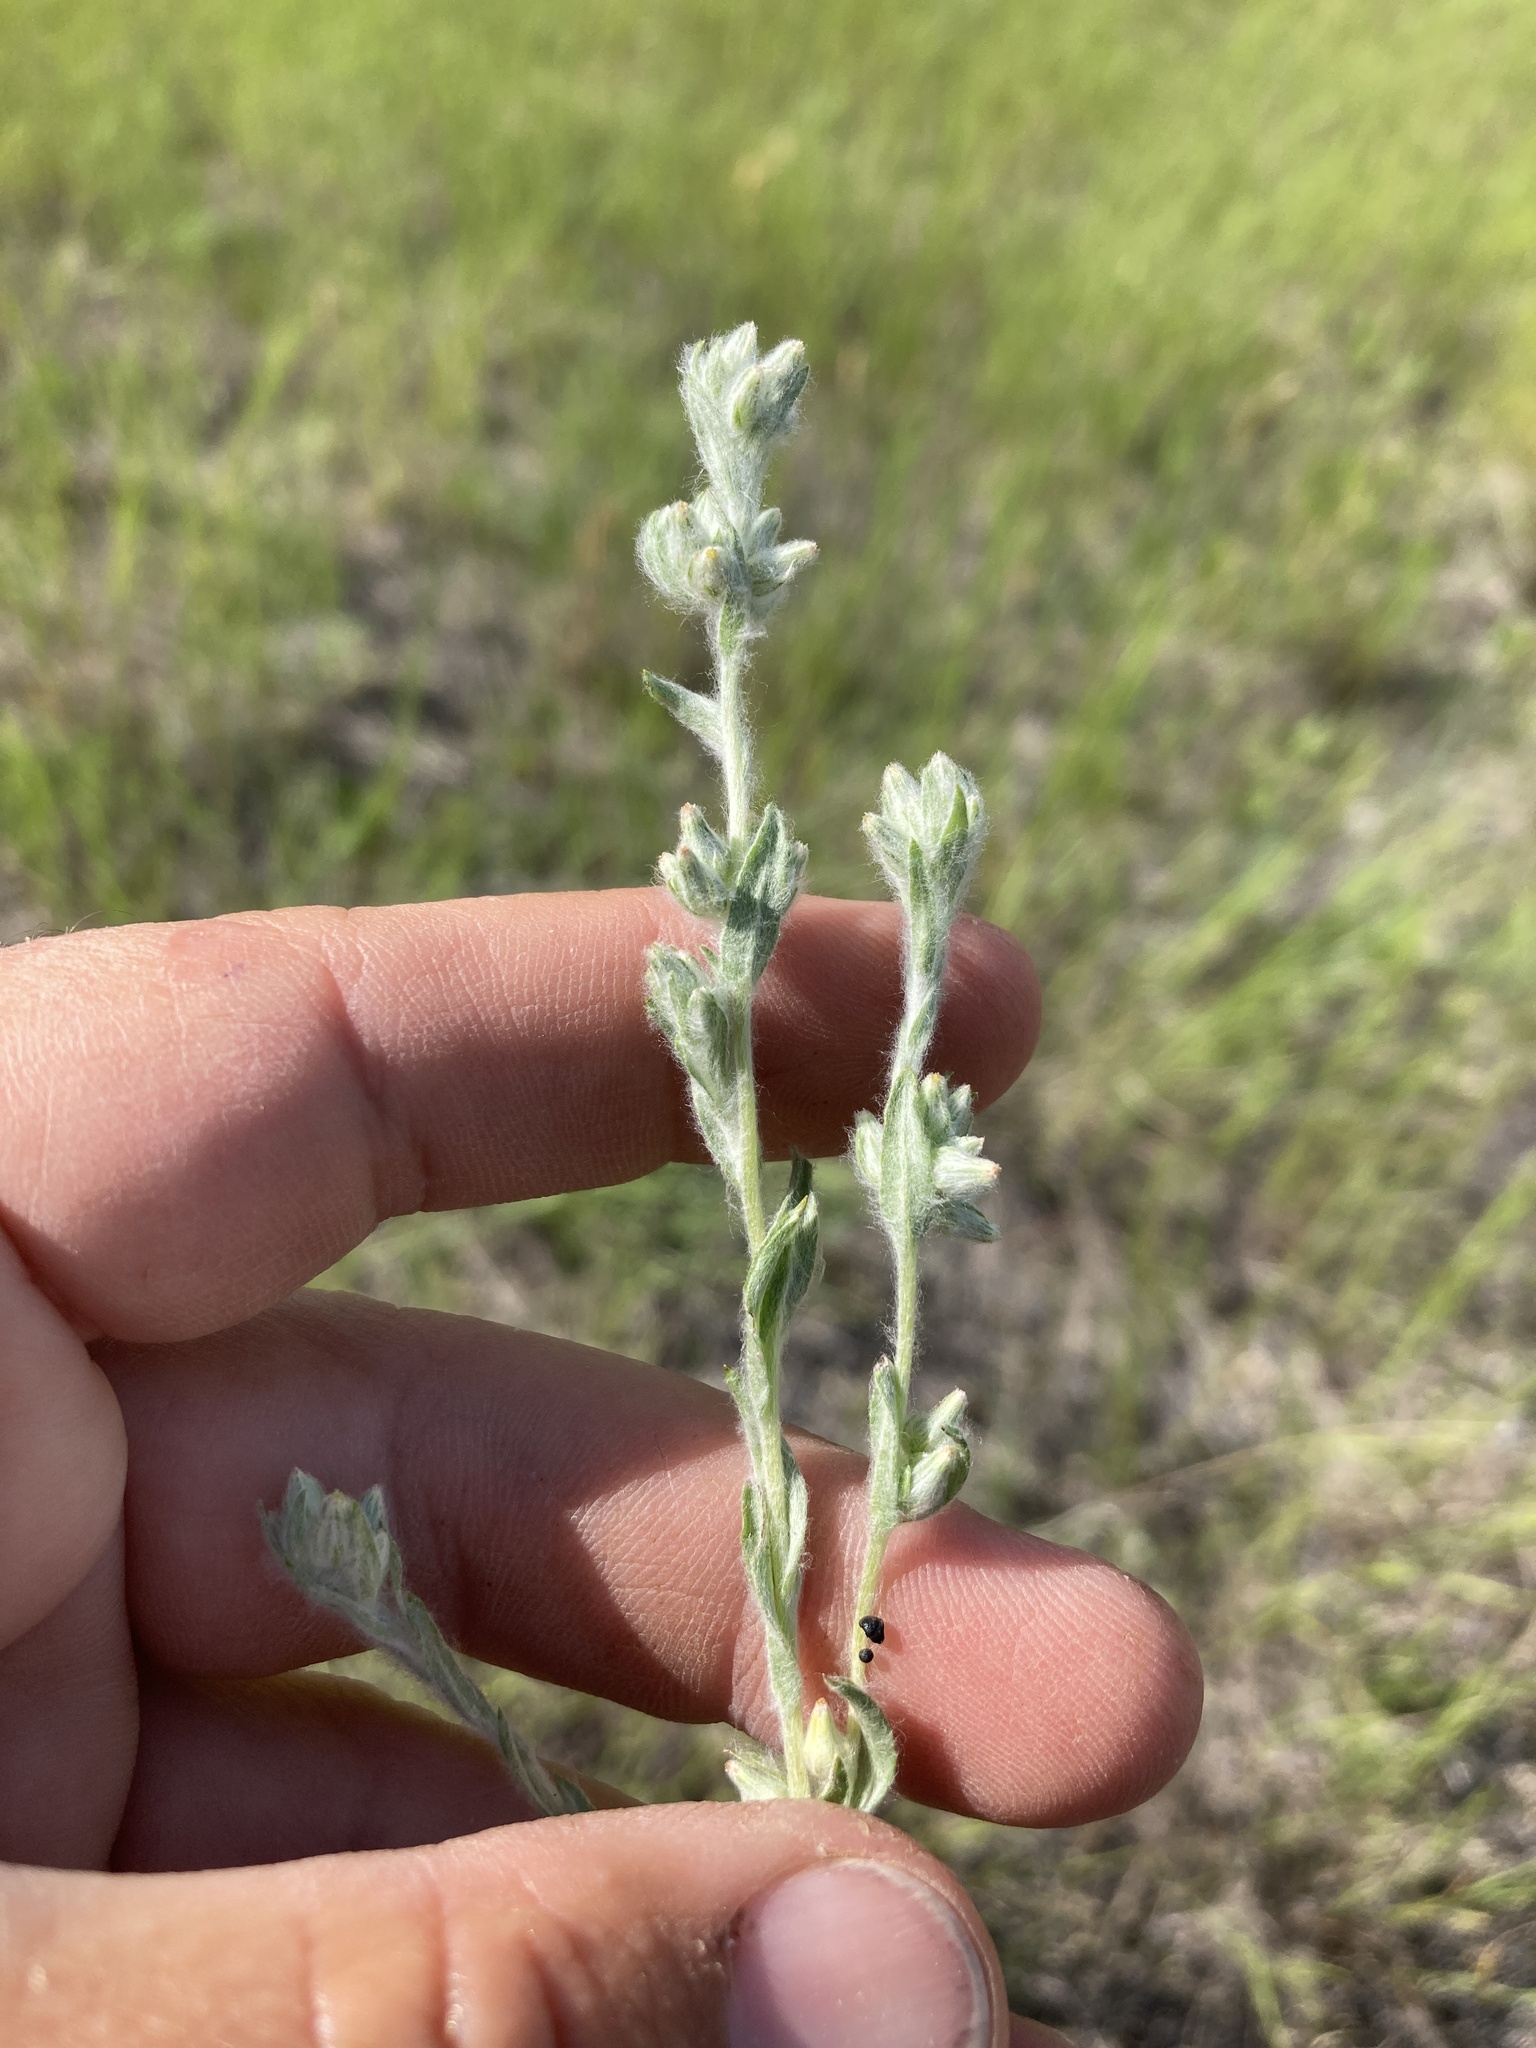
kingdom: Plantae
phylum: Tracheophyta
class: Magnoliopsida
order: Asterales
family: Asteraceae
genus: Filago
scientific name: Filago arvensis
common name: Field cudweed
